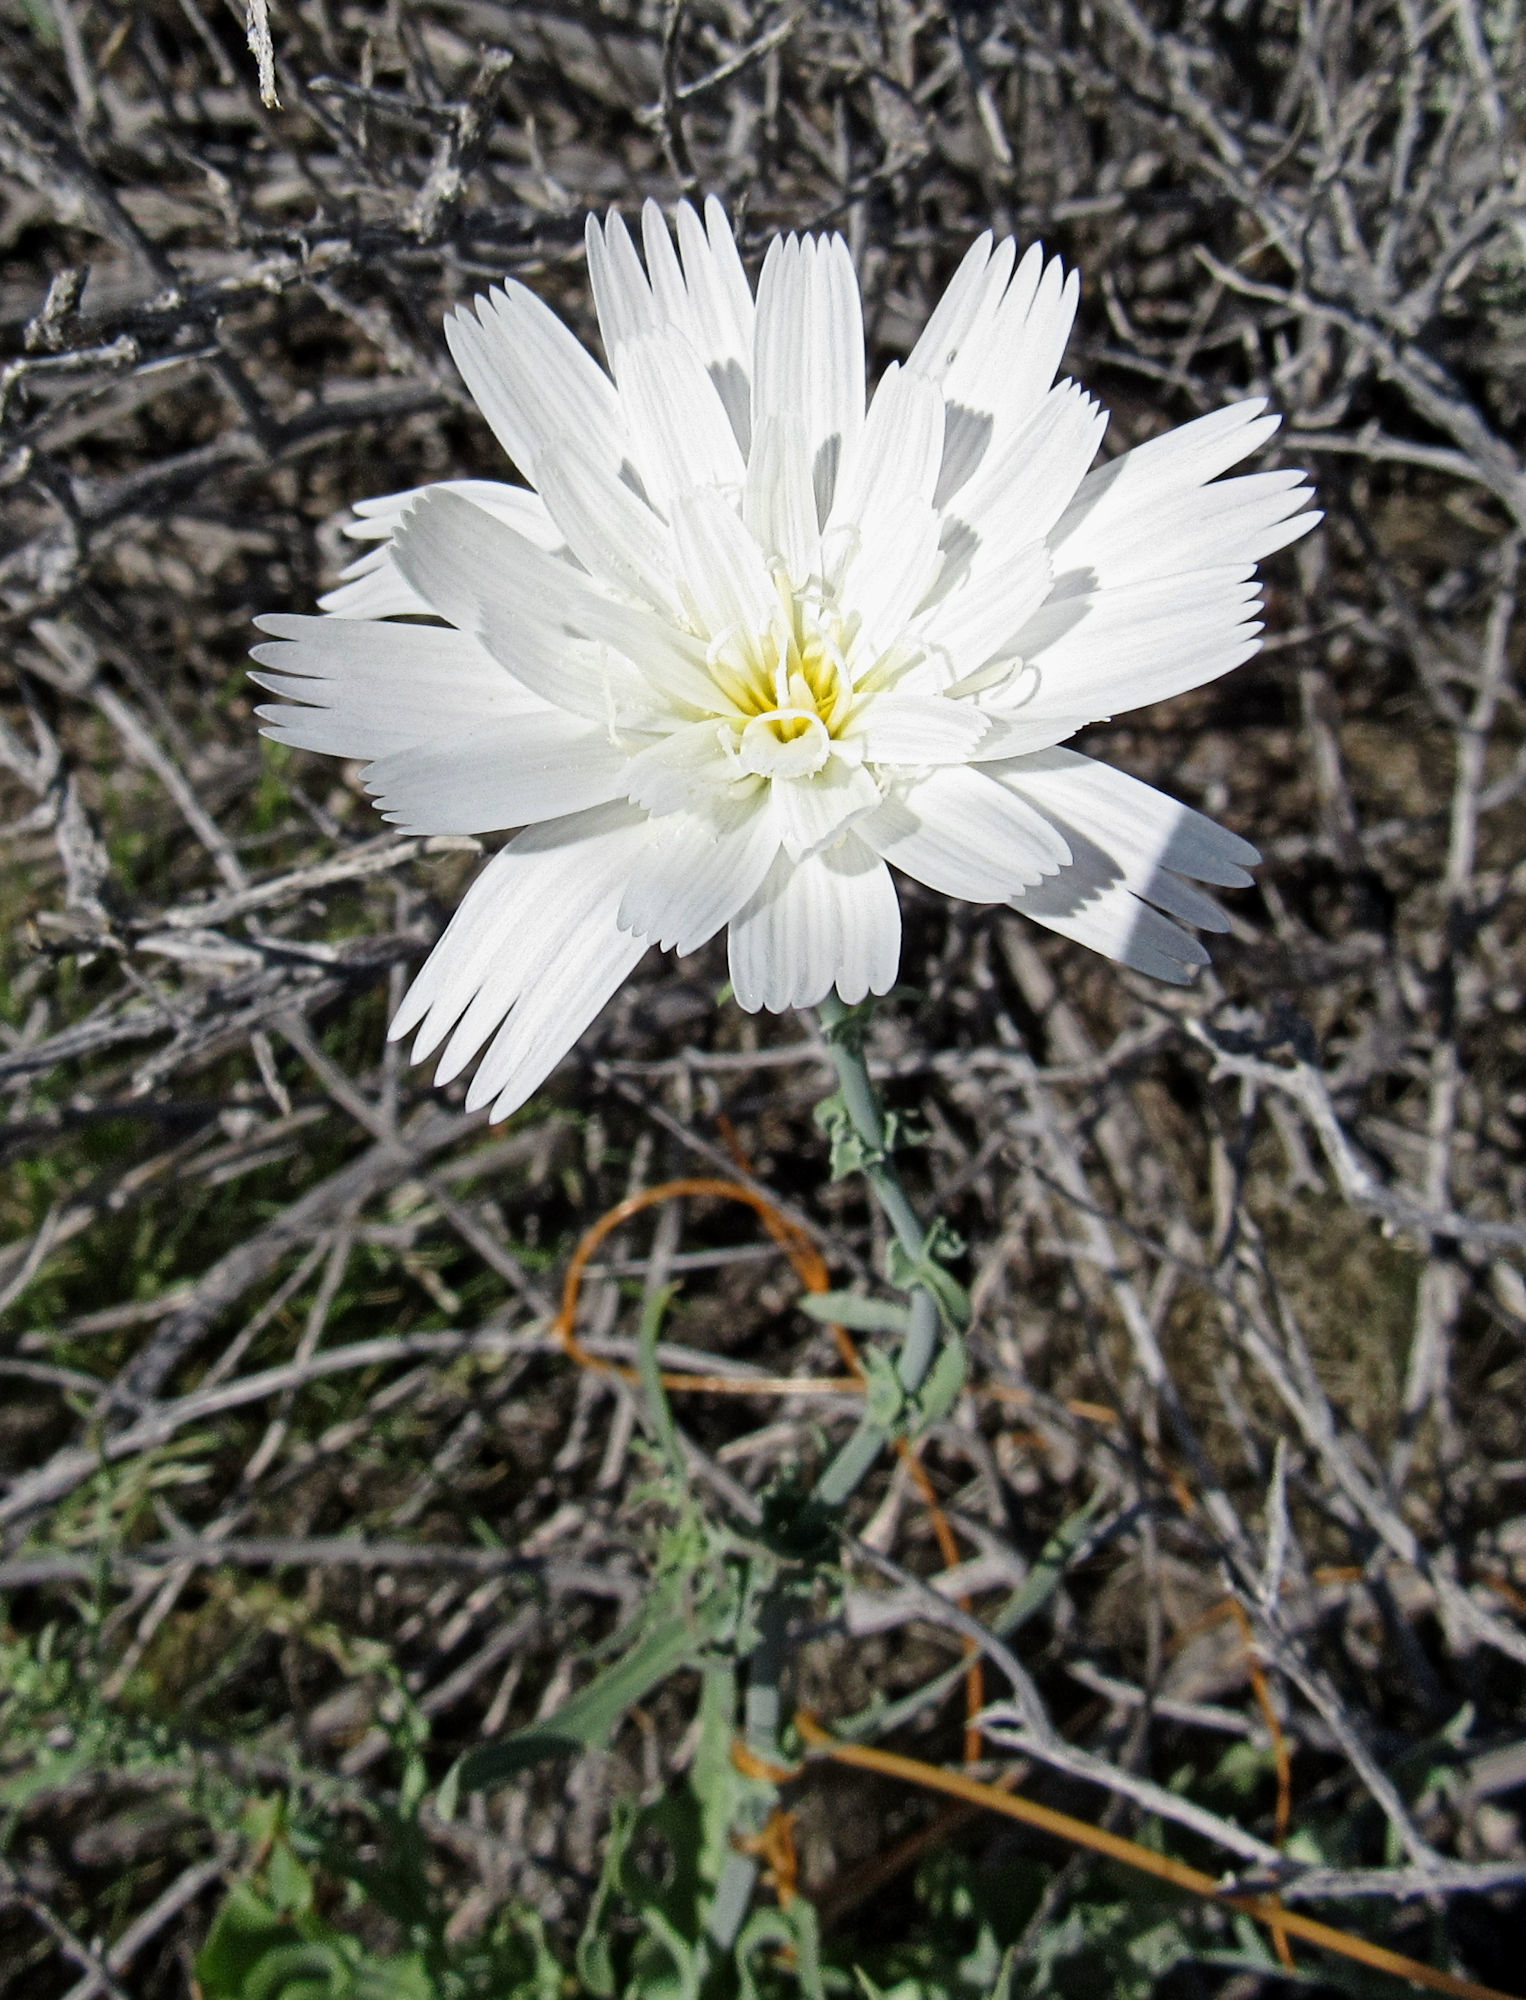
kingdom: Plantae
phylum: Tracheophyta
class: Magnoliopsida
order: Asterales
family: Asteraceae
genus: Rafinesquia
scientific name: Rafinesquia neomexicana
